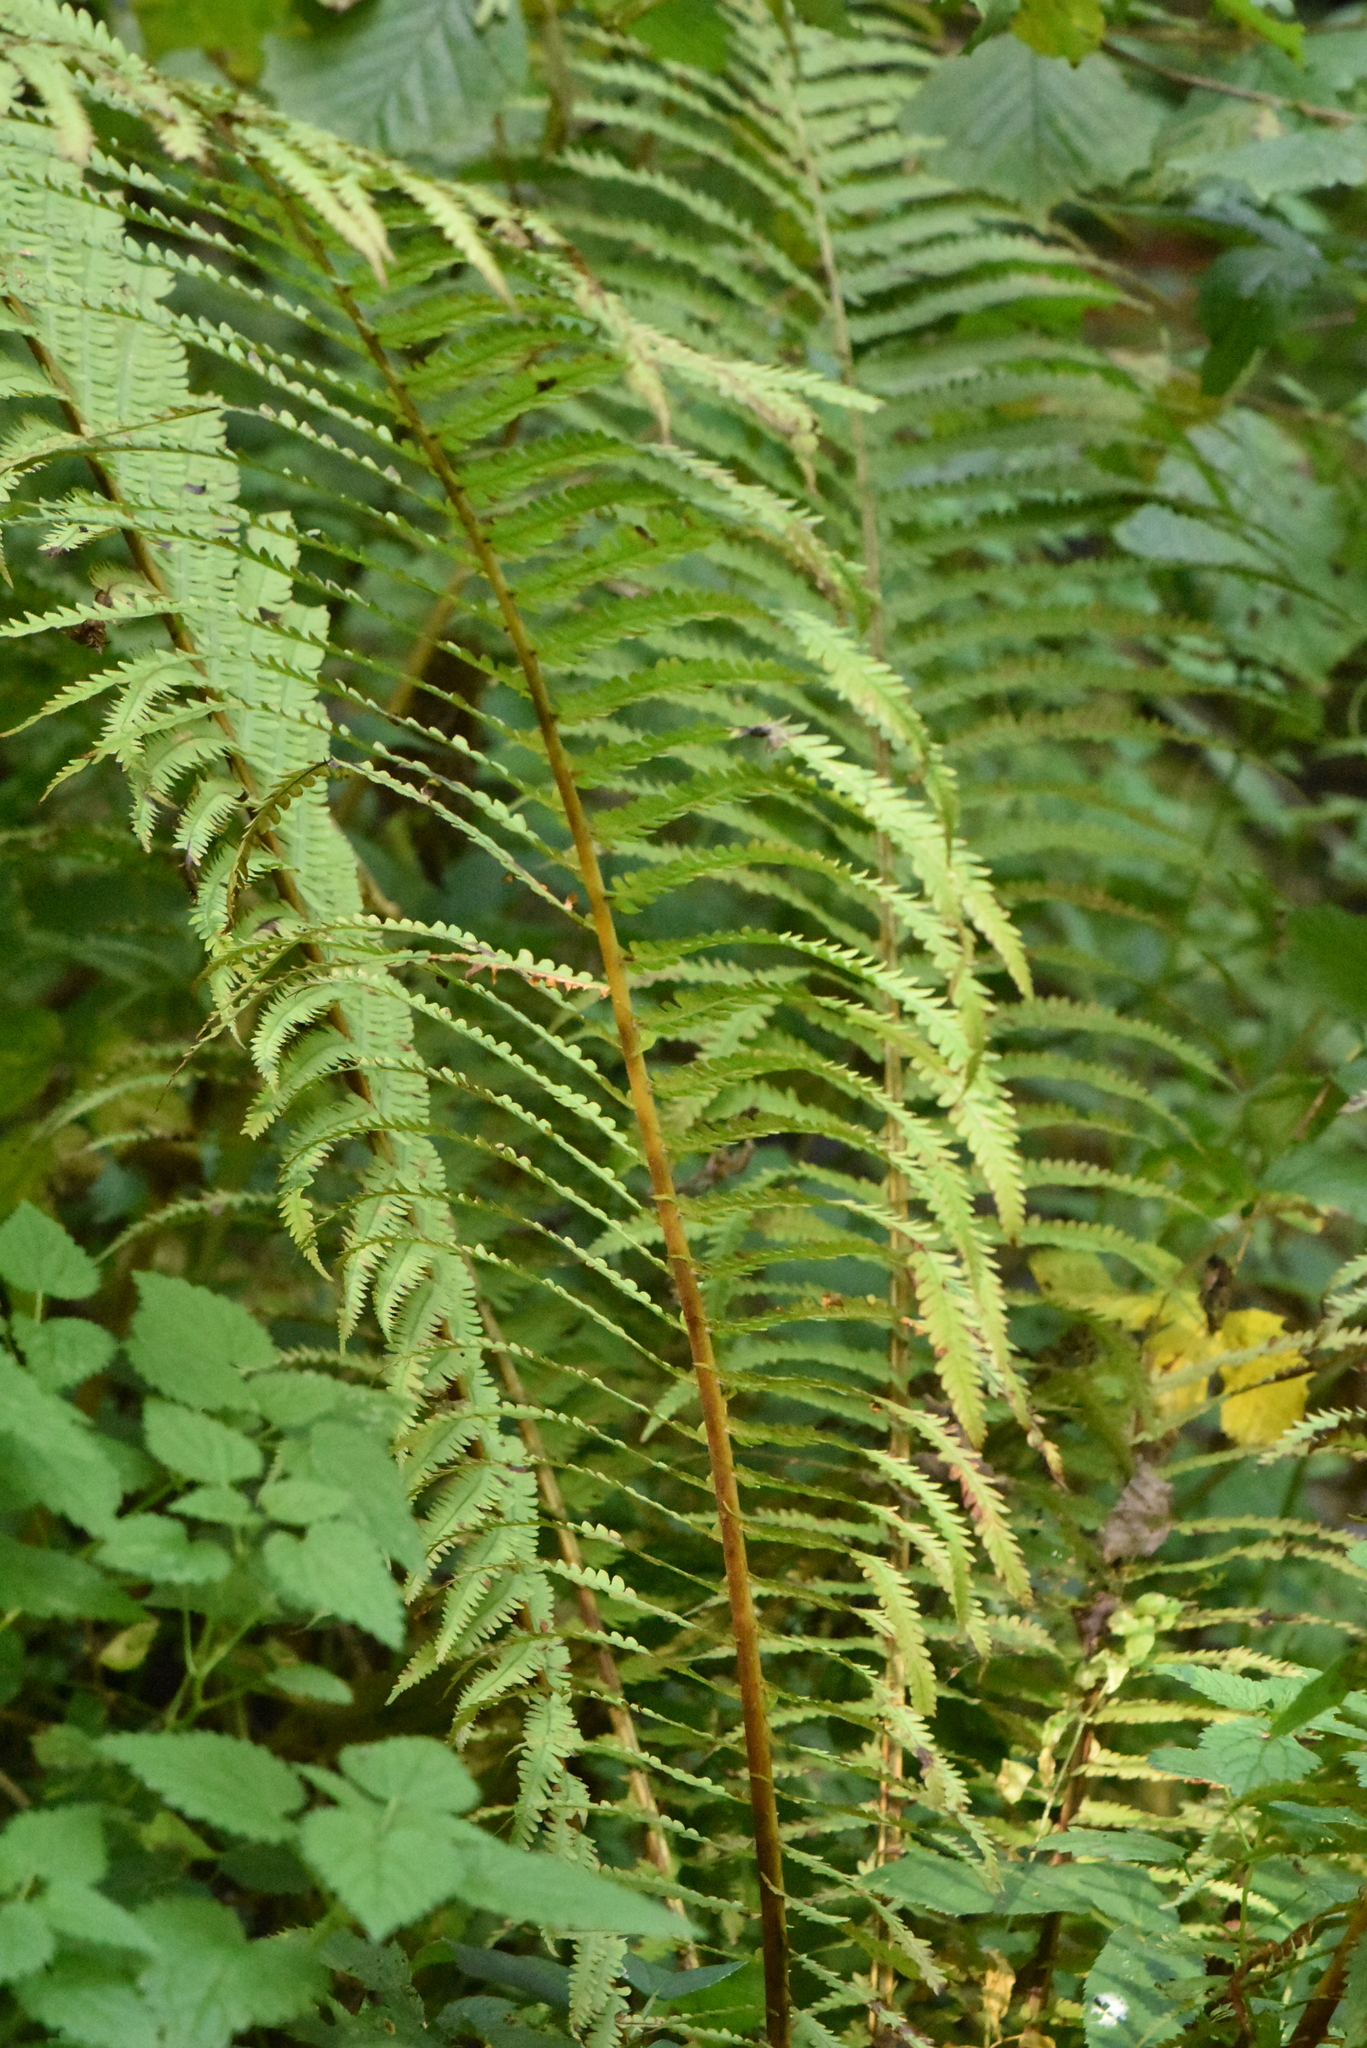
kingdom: Plantae
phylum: Tracheophyta
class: Polypodiopsida
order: Polypodiales
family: Onocleaceae
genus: Matteuccia
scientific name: Matteuccia struthiopteris
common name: Ostrich fern
